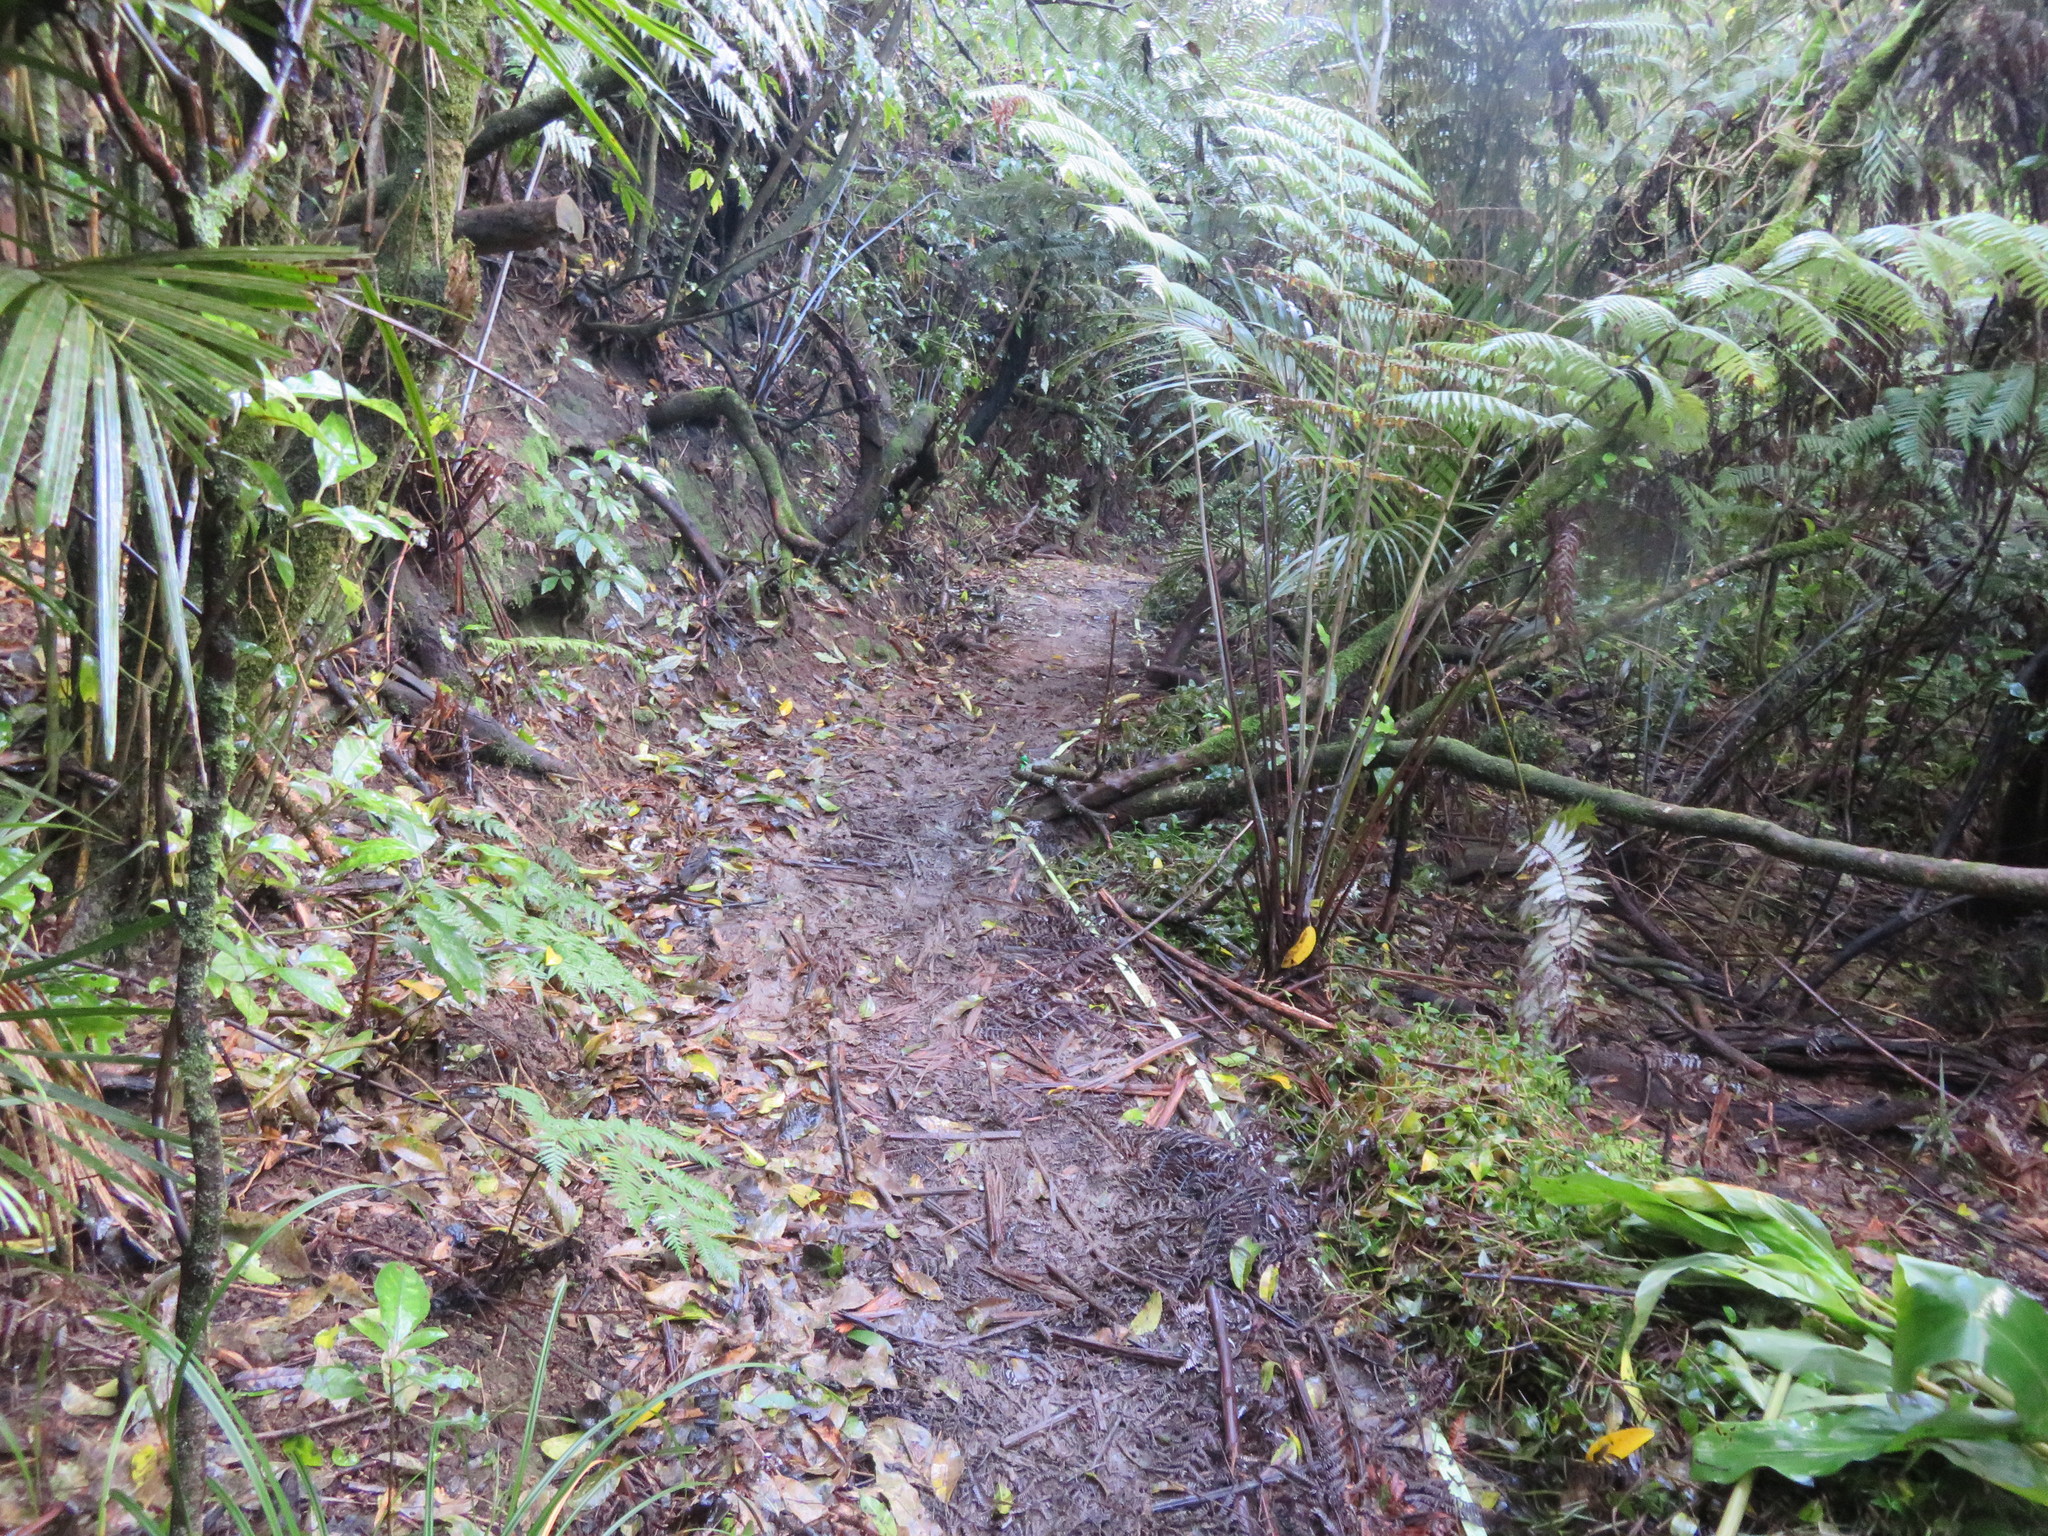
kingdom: Plantae
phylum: Tracheophyta
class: Polypodiopsida
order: Cyatheales
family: Cyatheaceae
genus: Alsophila
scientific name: Alsophila dealbata
